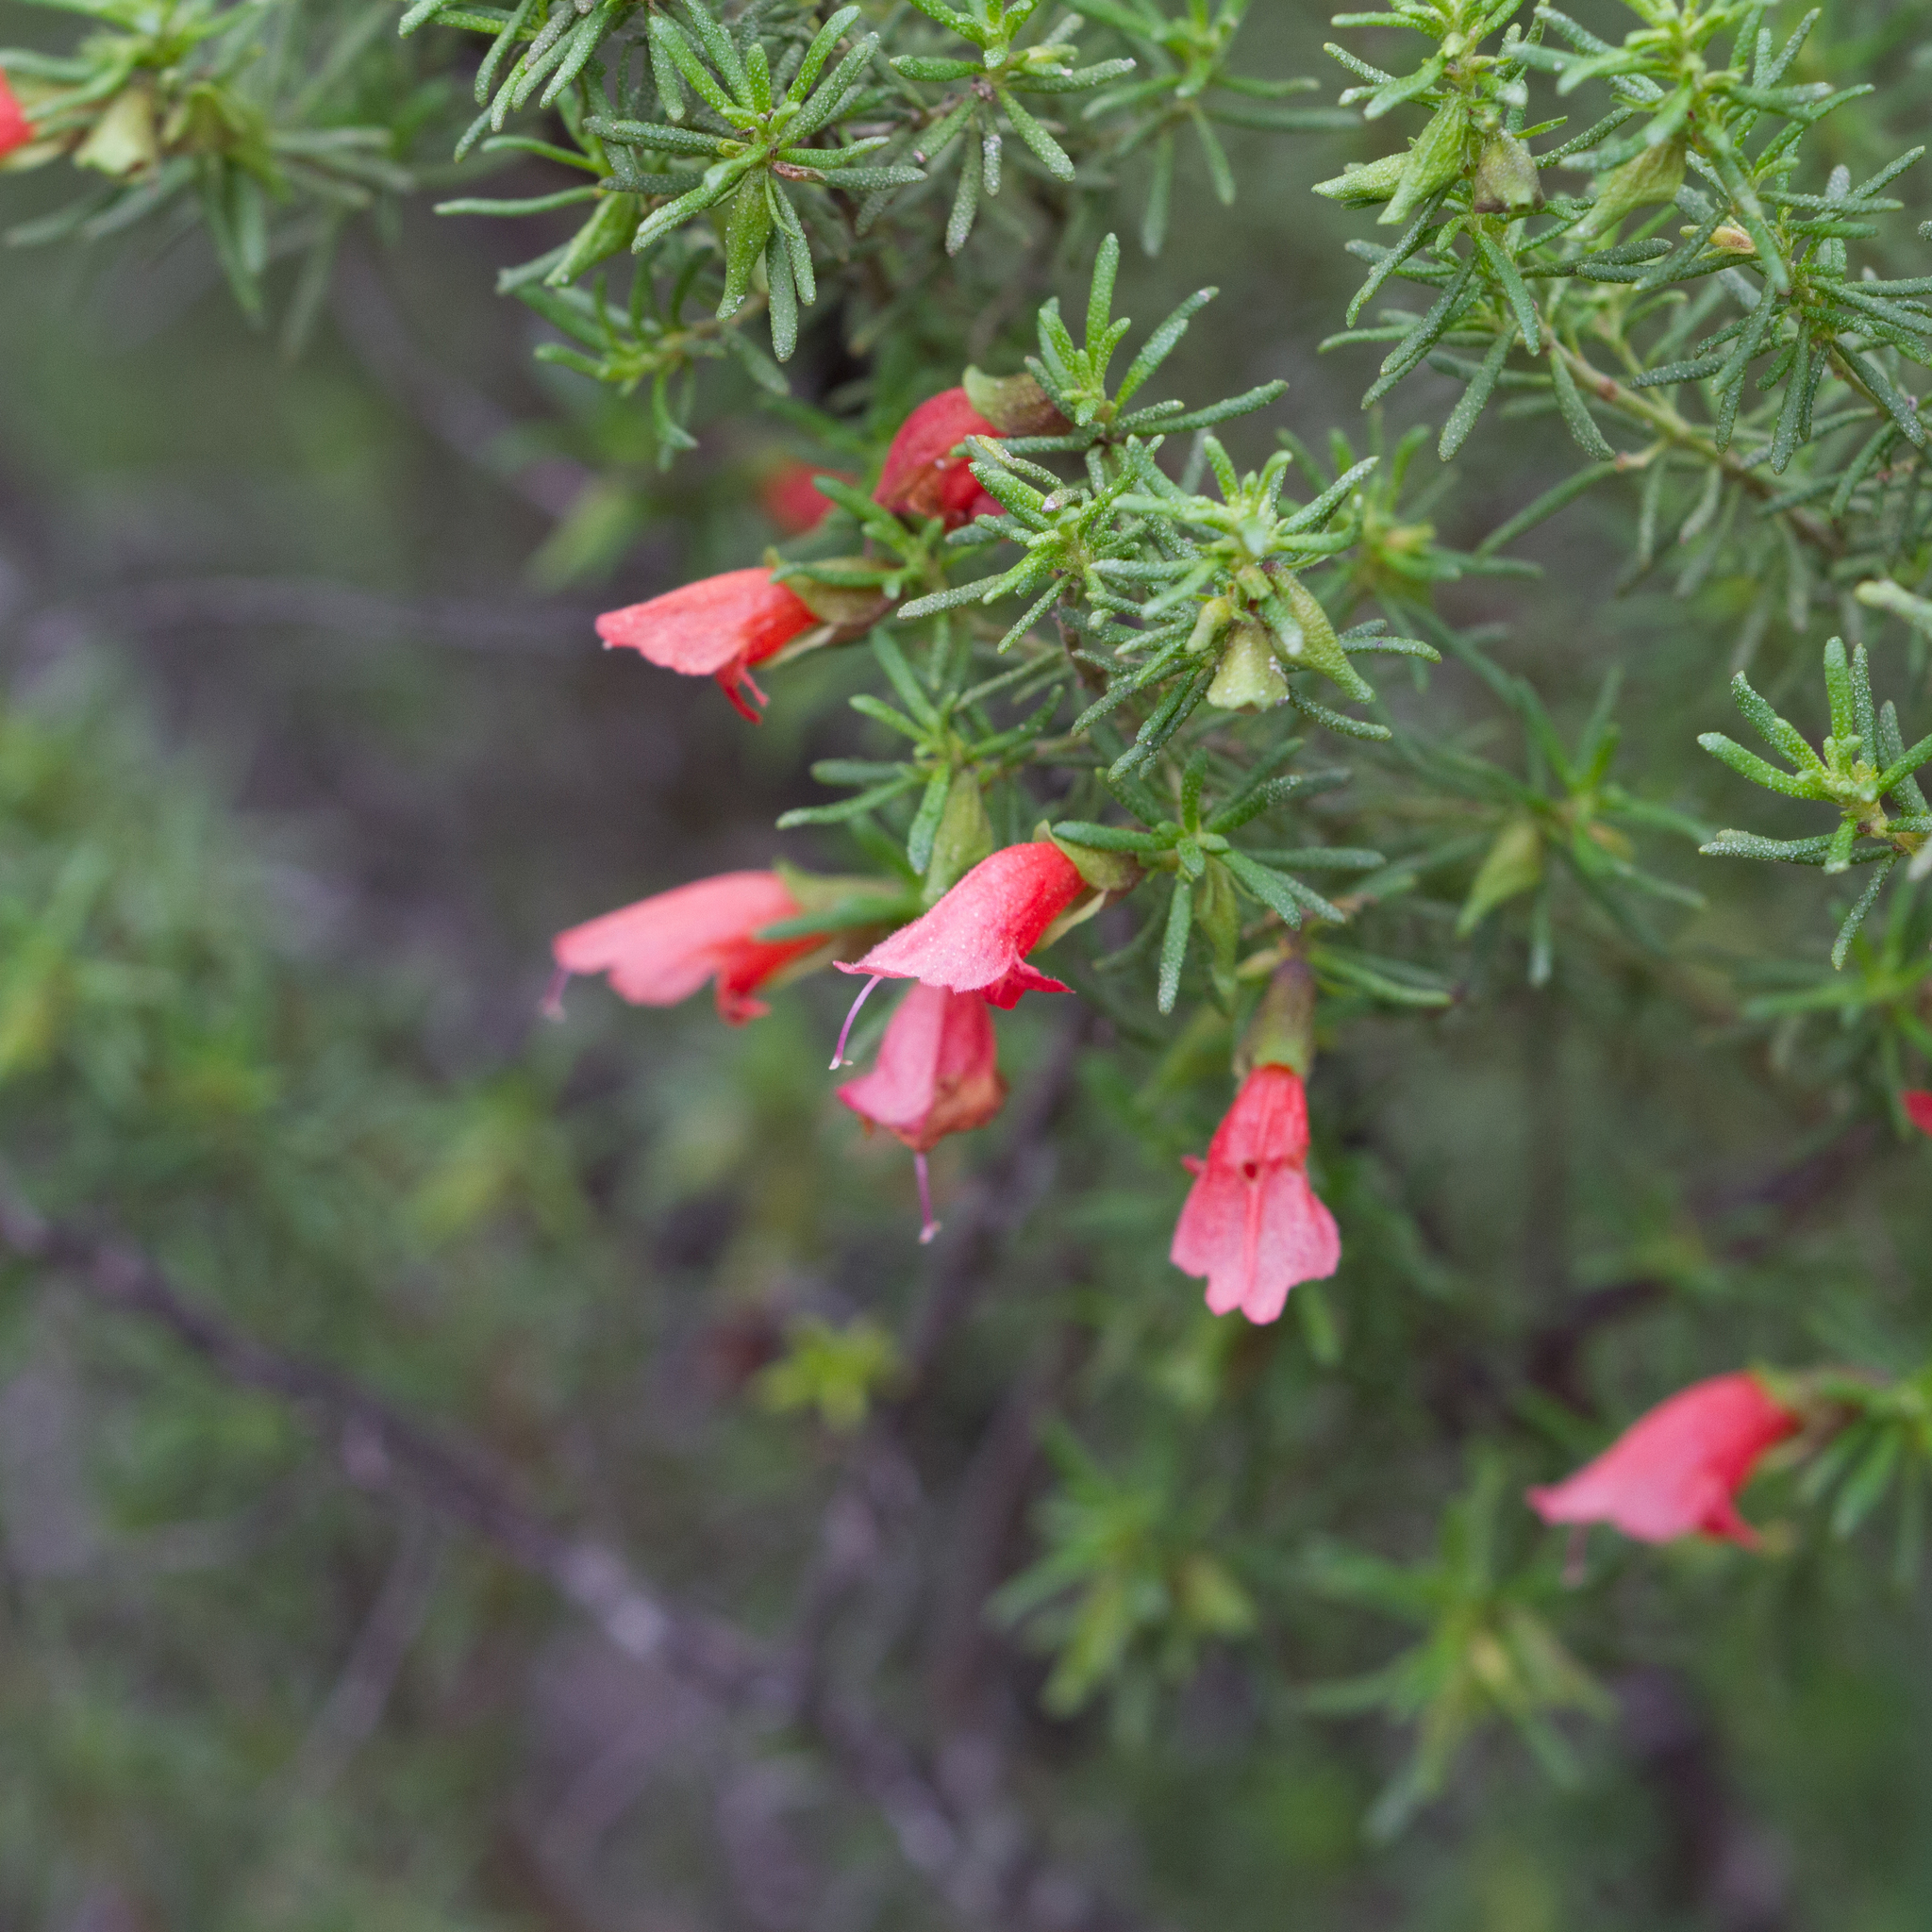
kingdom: Plantae
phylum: Tracheophyta
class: Magnoliopsida
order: Lamiales
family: Lamiaceae
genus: Prostanthera
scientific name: Prostanthera aspalathoides
